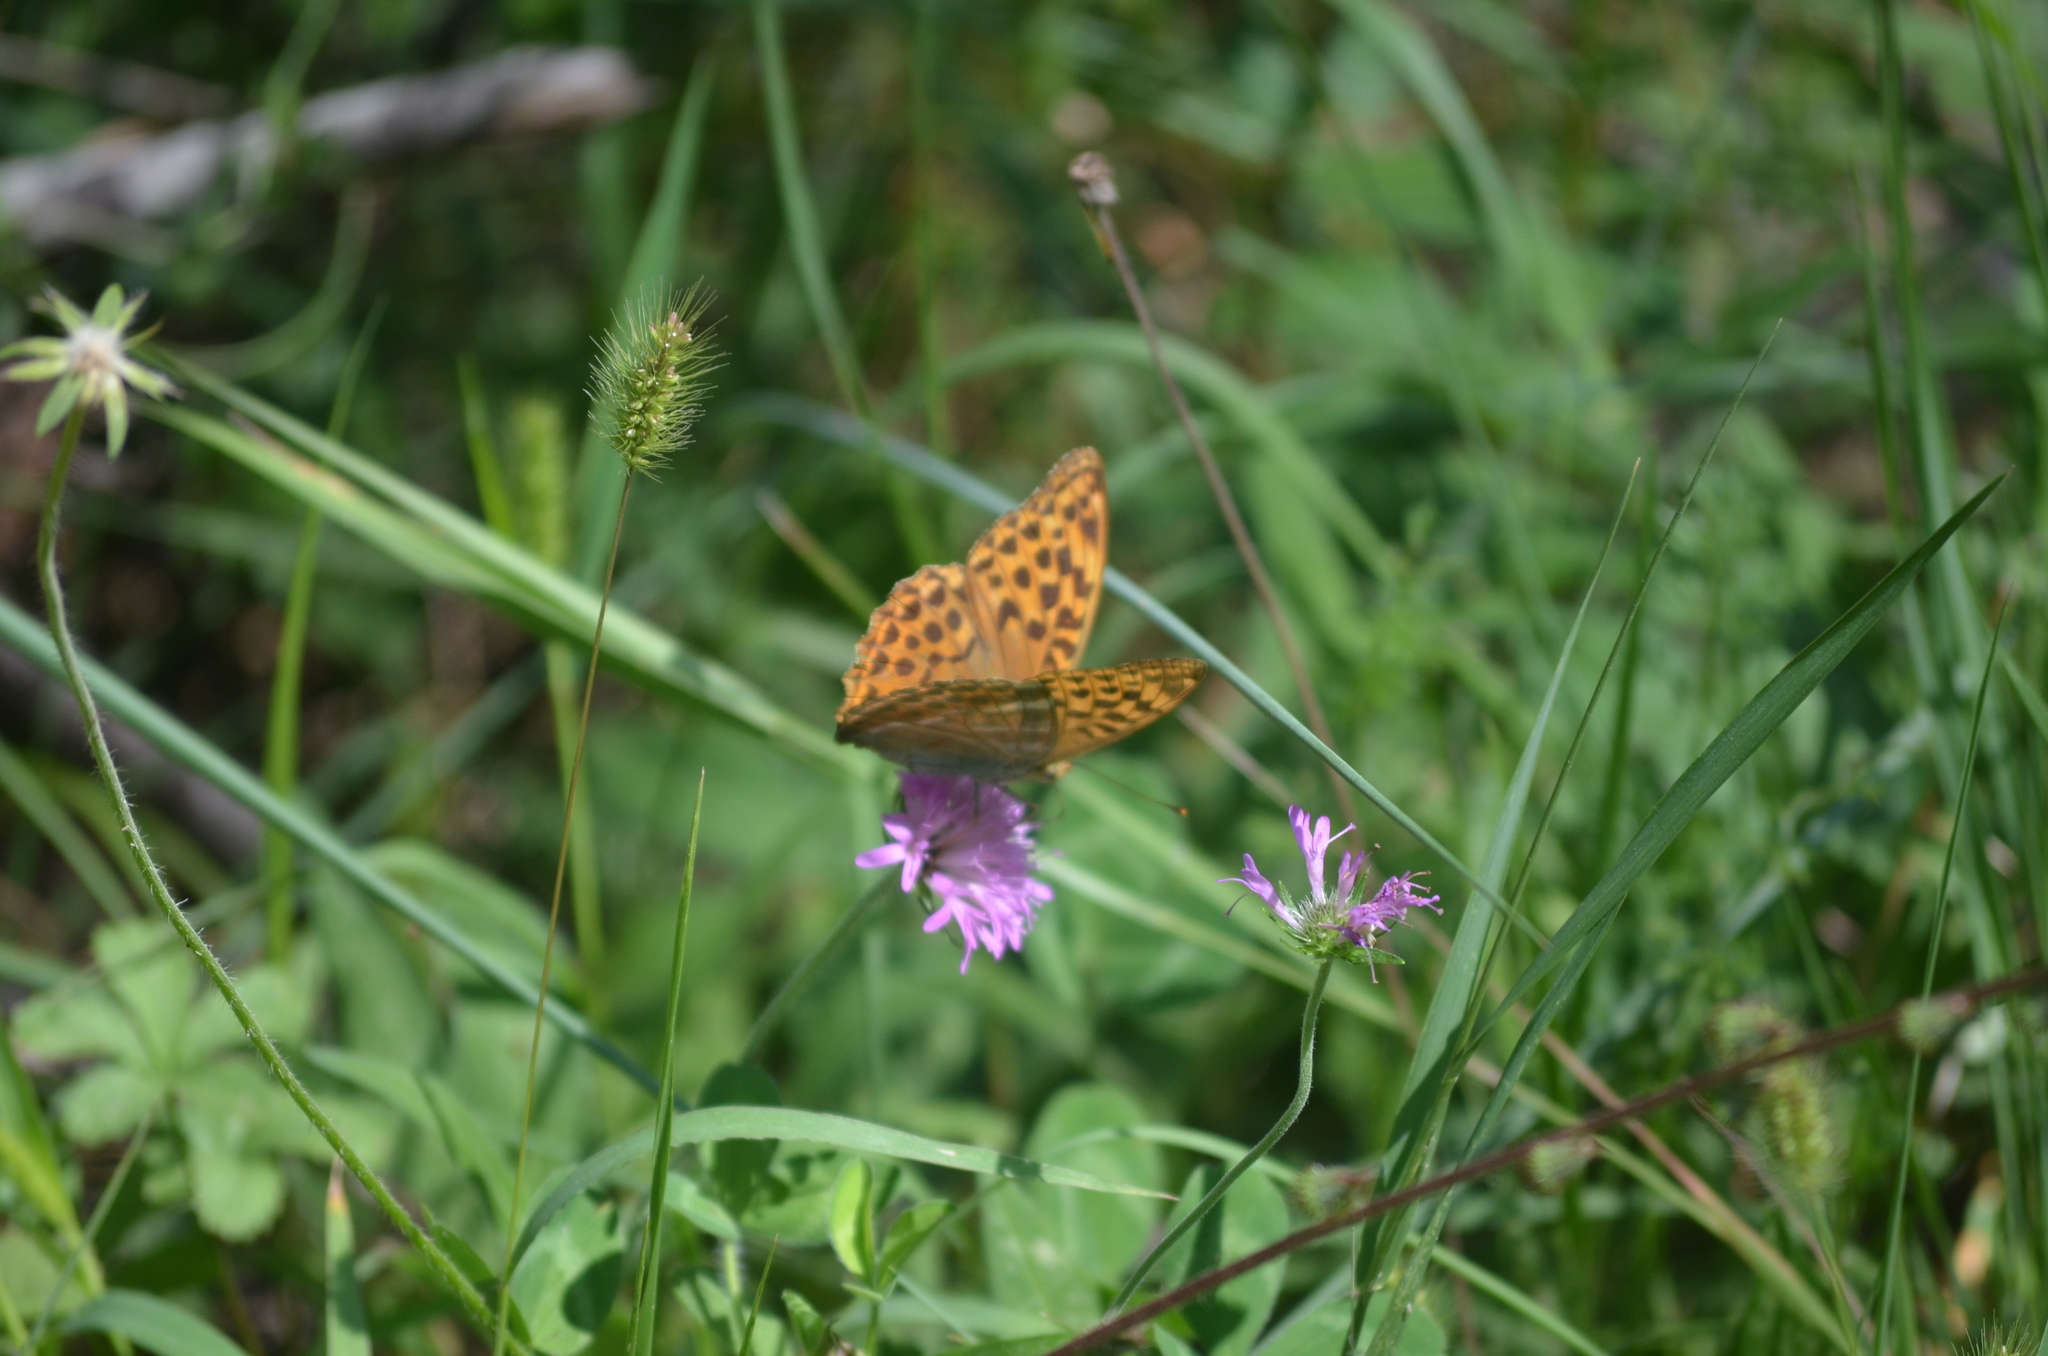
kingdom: Animalia
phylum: Arthropoda
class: Insecta
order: Lepidoptera
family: Nymphalidae
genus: Argynnis
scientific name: Argynnis paphia
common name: Silver-washed fritillary
